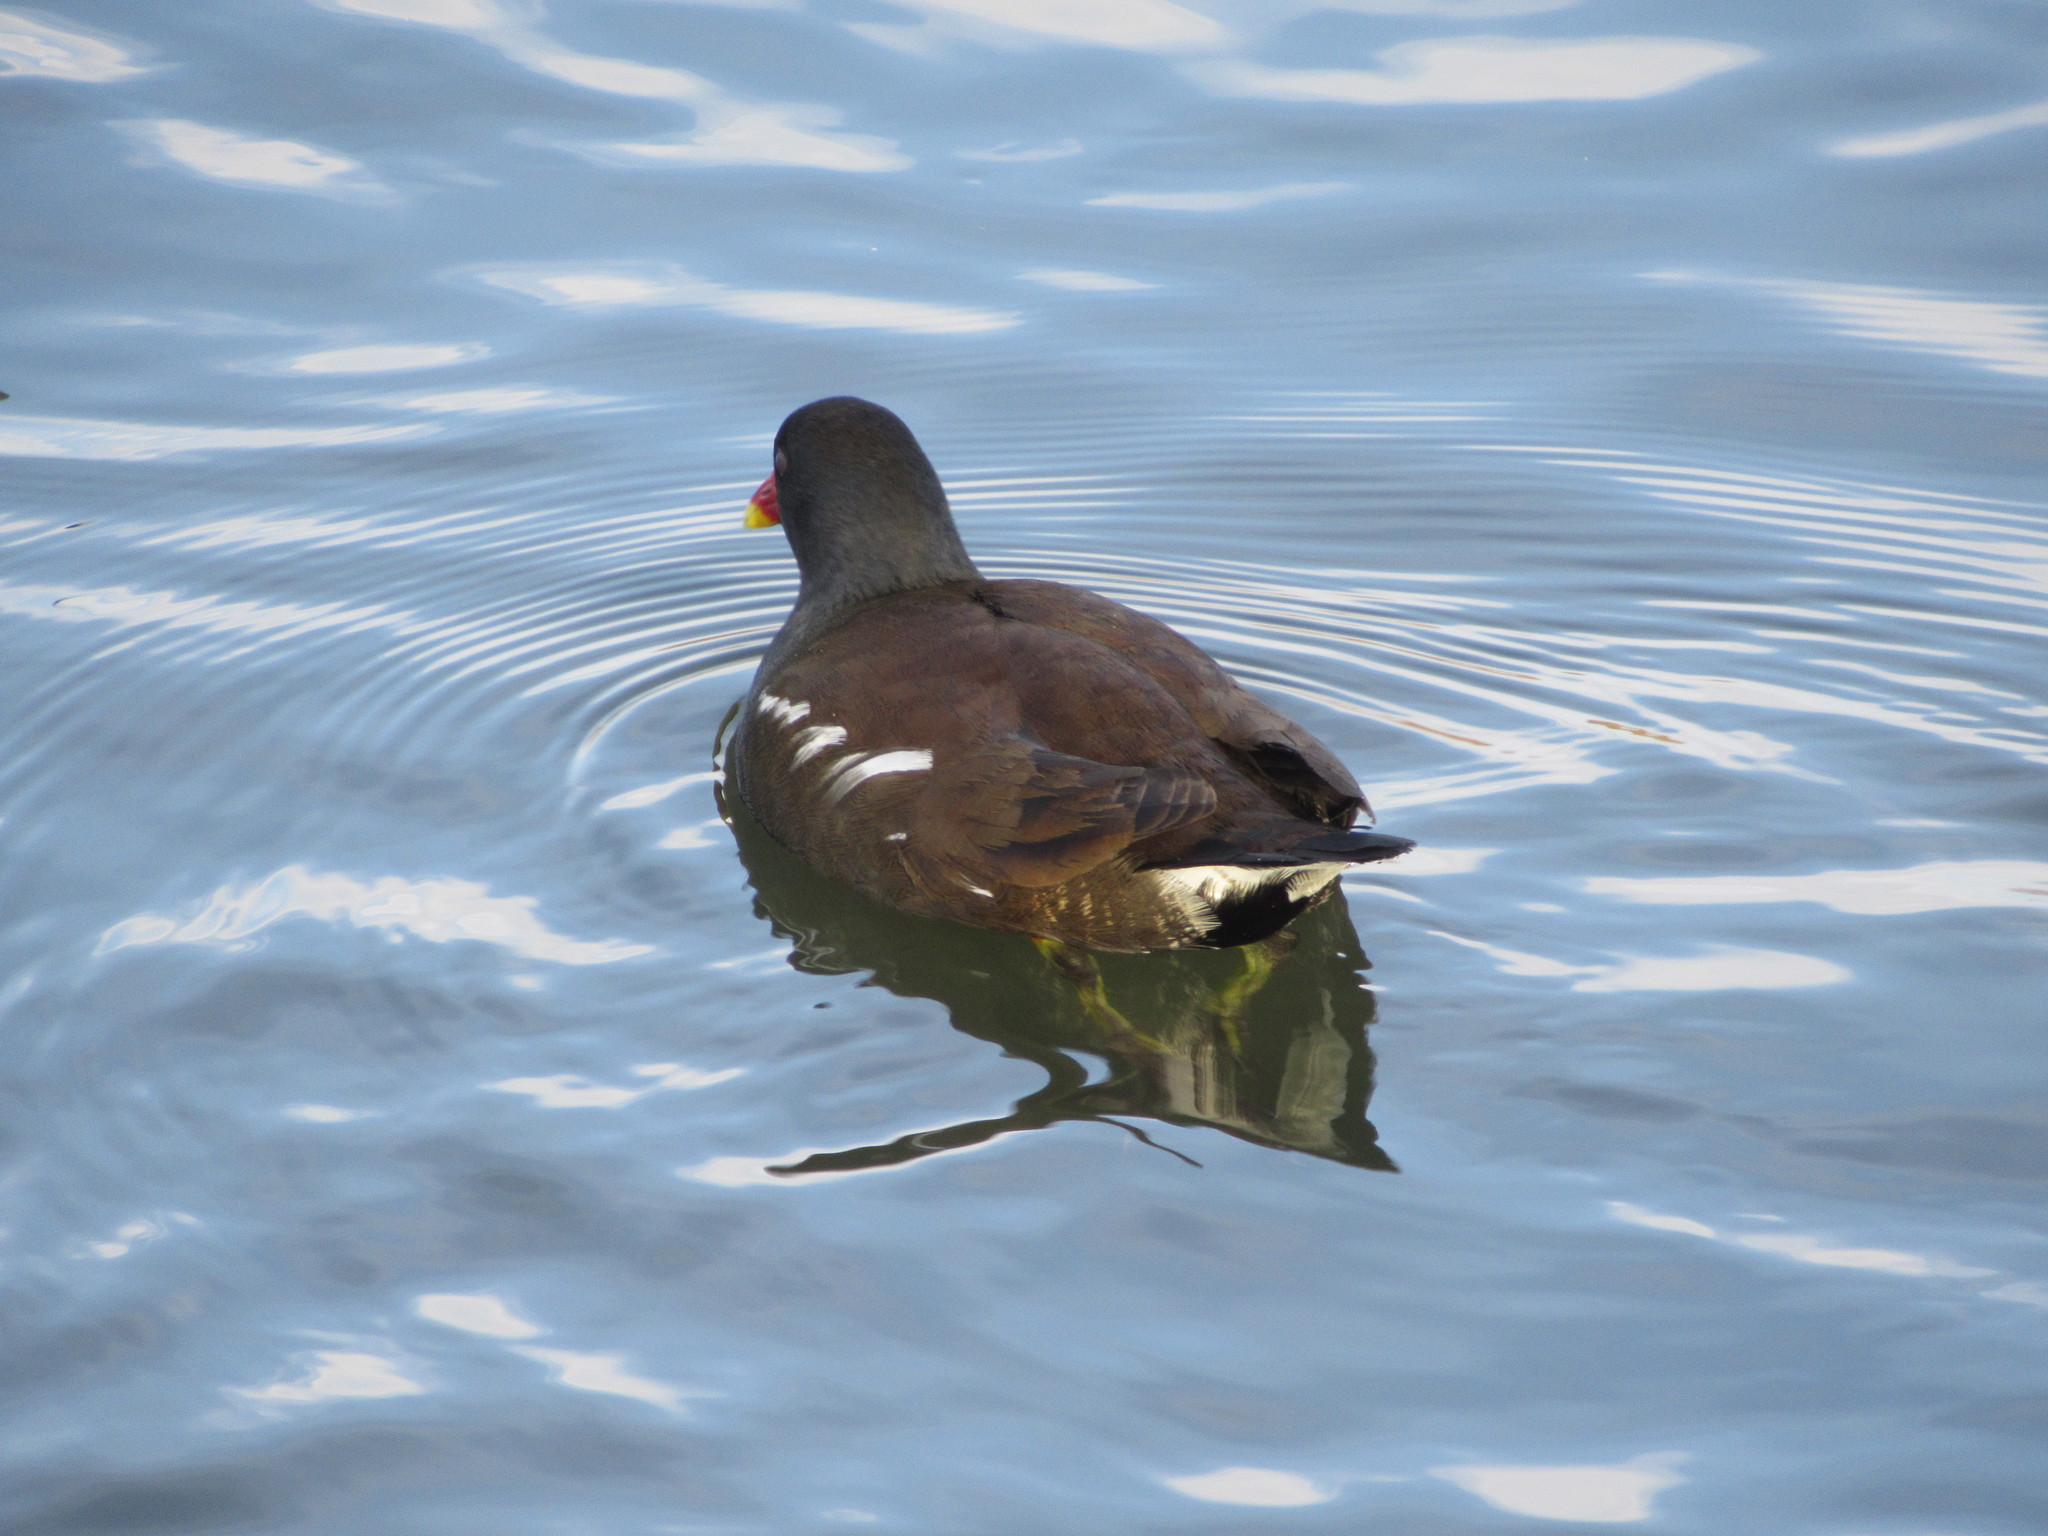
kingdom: Animalia
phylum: Chordata
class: Aves
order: Gruiformes
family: Rallidae
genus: Gallinula
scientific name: Gallinula chloropus
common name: Common moorhen
